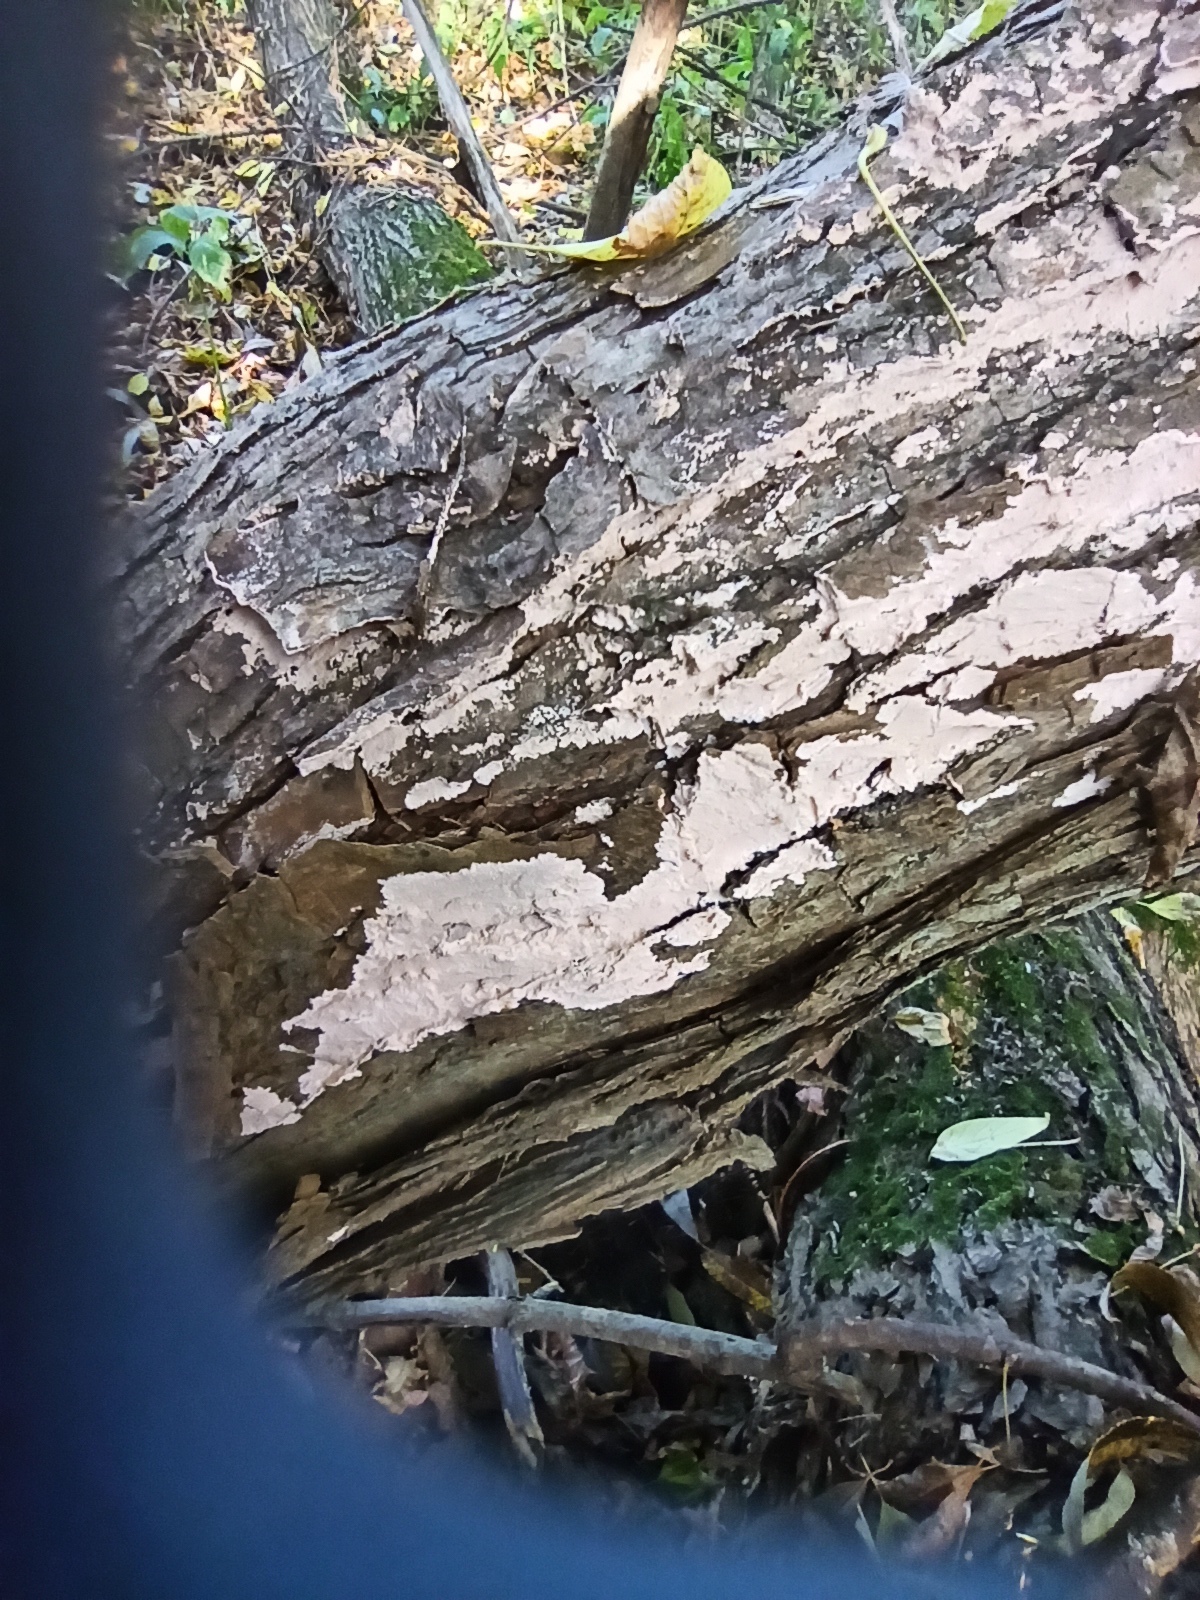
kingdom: Fungi
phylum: Basidiomycota
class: Agaricomycetes
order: Corticiales
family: Corticiaceae
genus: Corticium
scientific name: Corticium roseum
